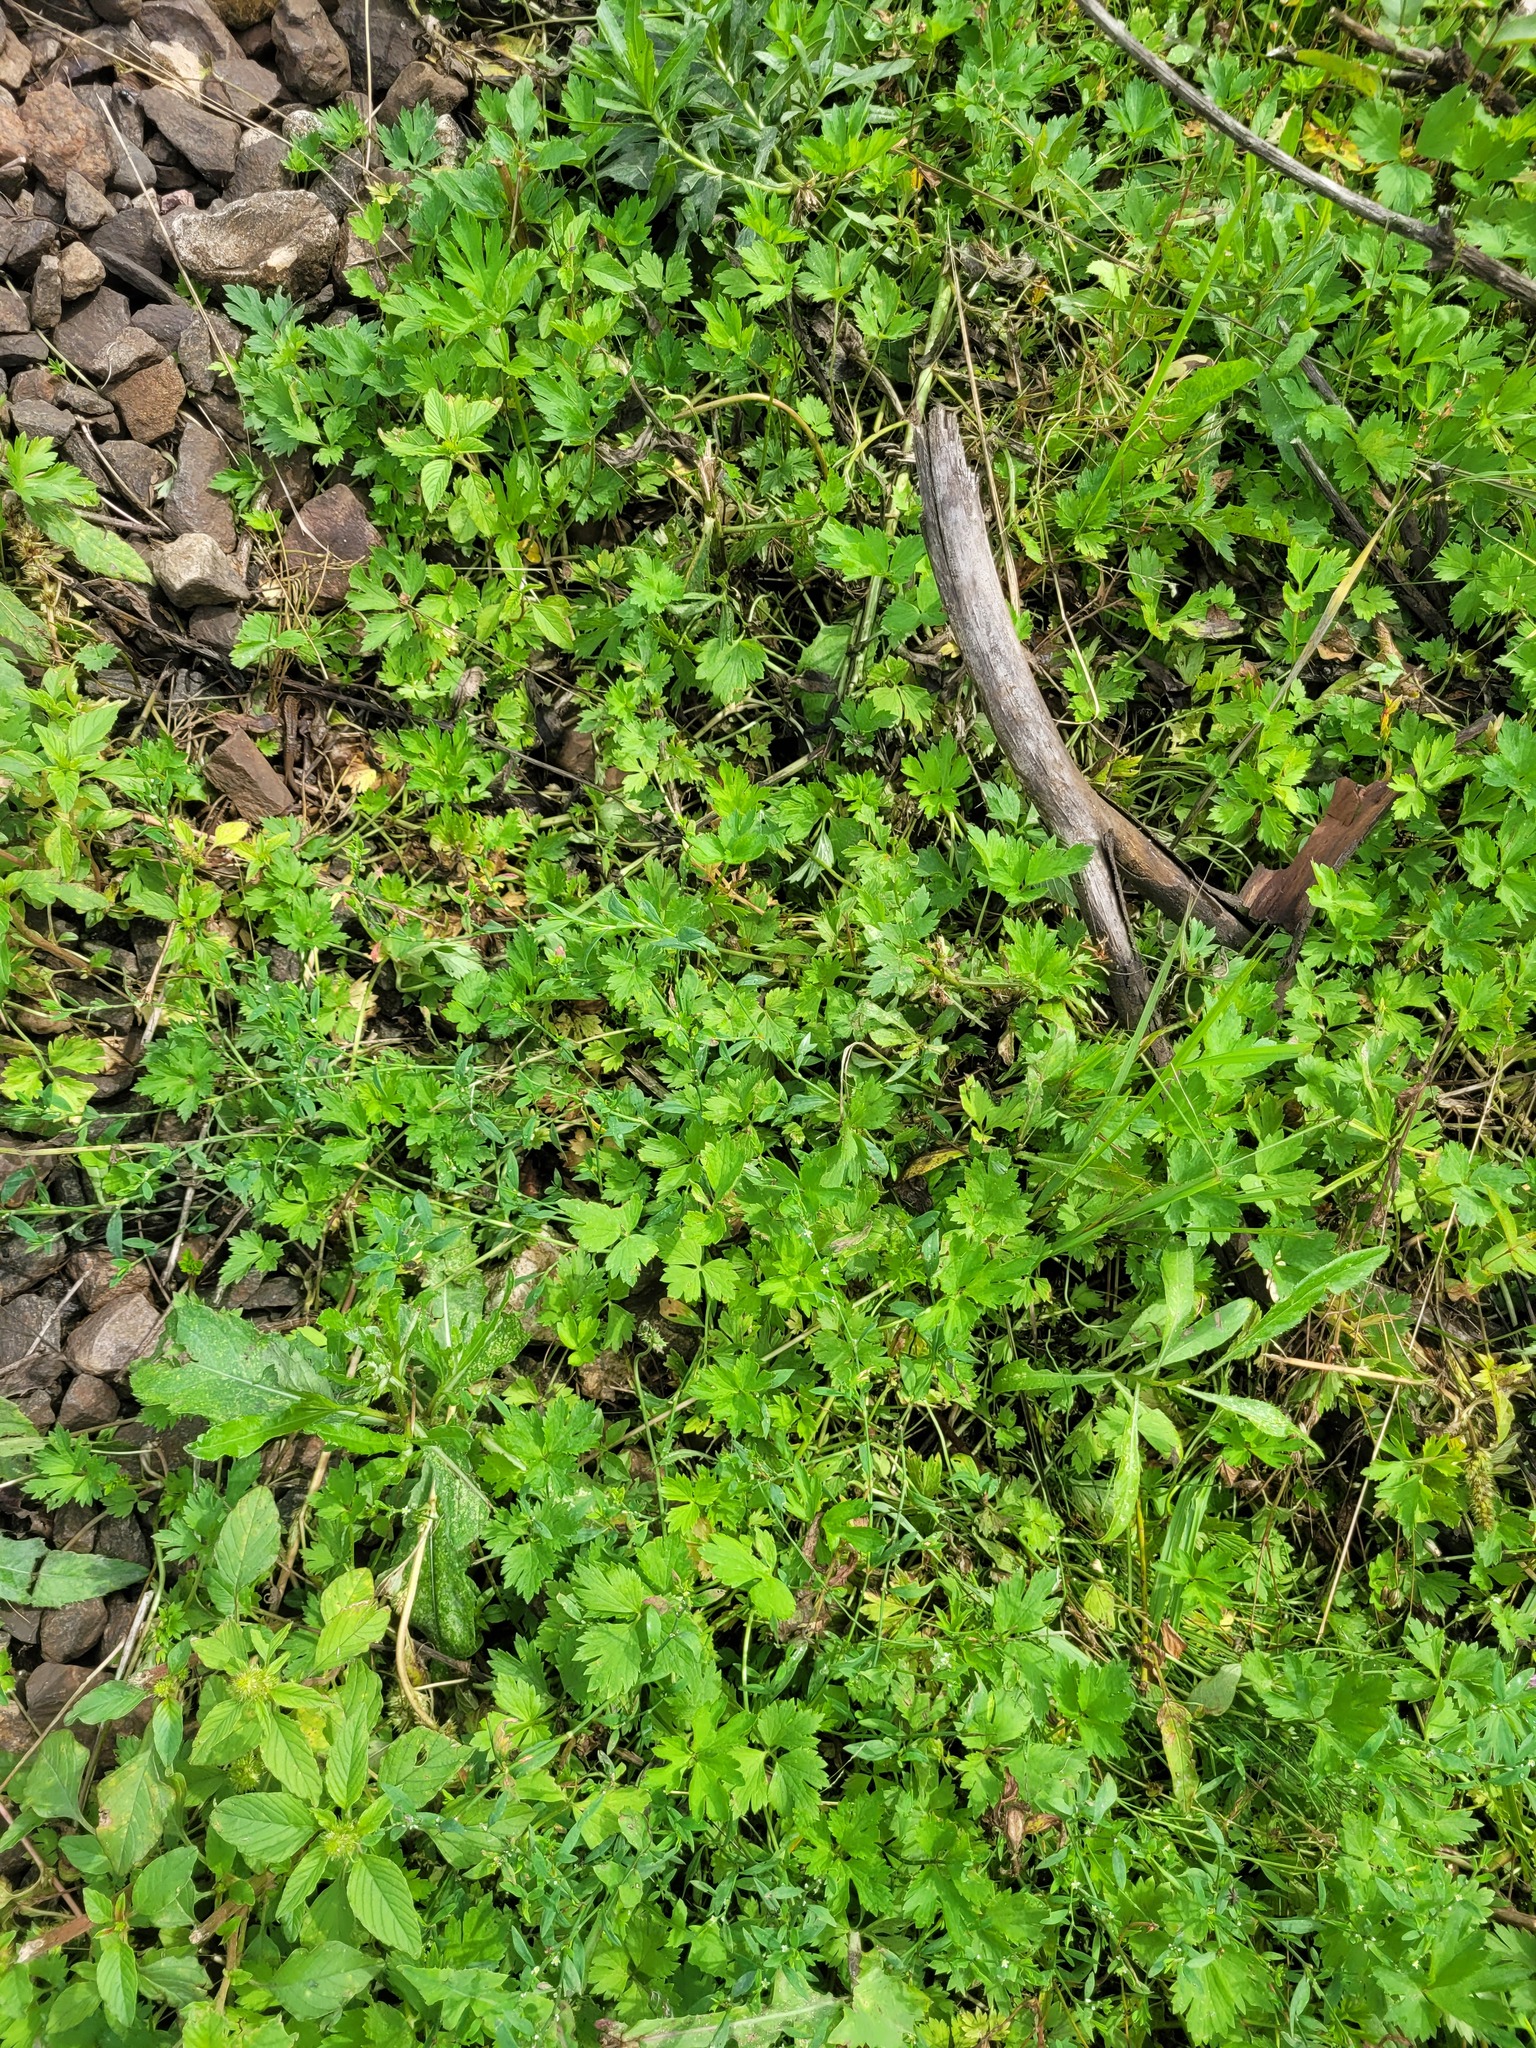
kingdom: Plantae
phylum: Tracheophyta
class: Magnoliopsida
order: Ranunculales
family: Ranunculaceae
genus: Ranunculus
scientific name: Ranunculus repens
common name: Creeping buttercup
